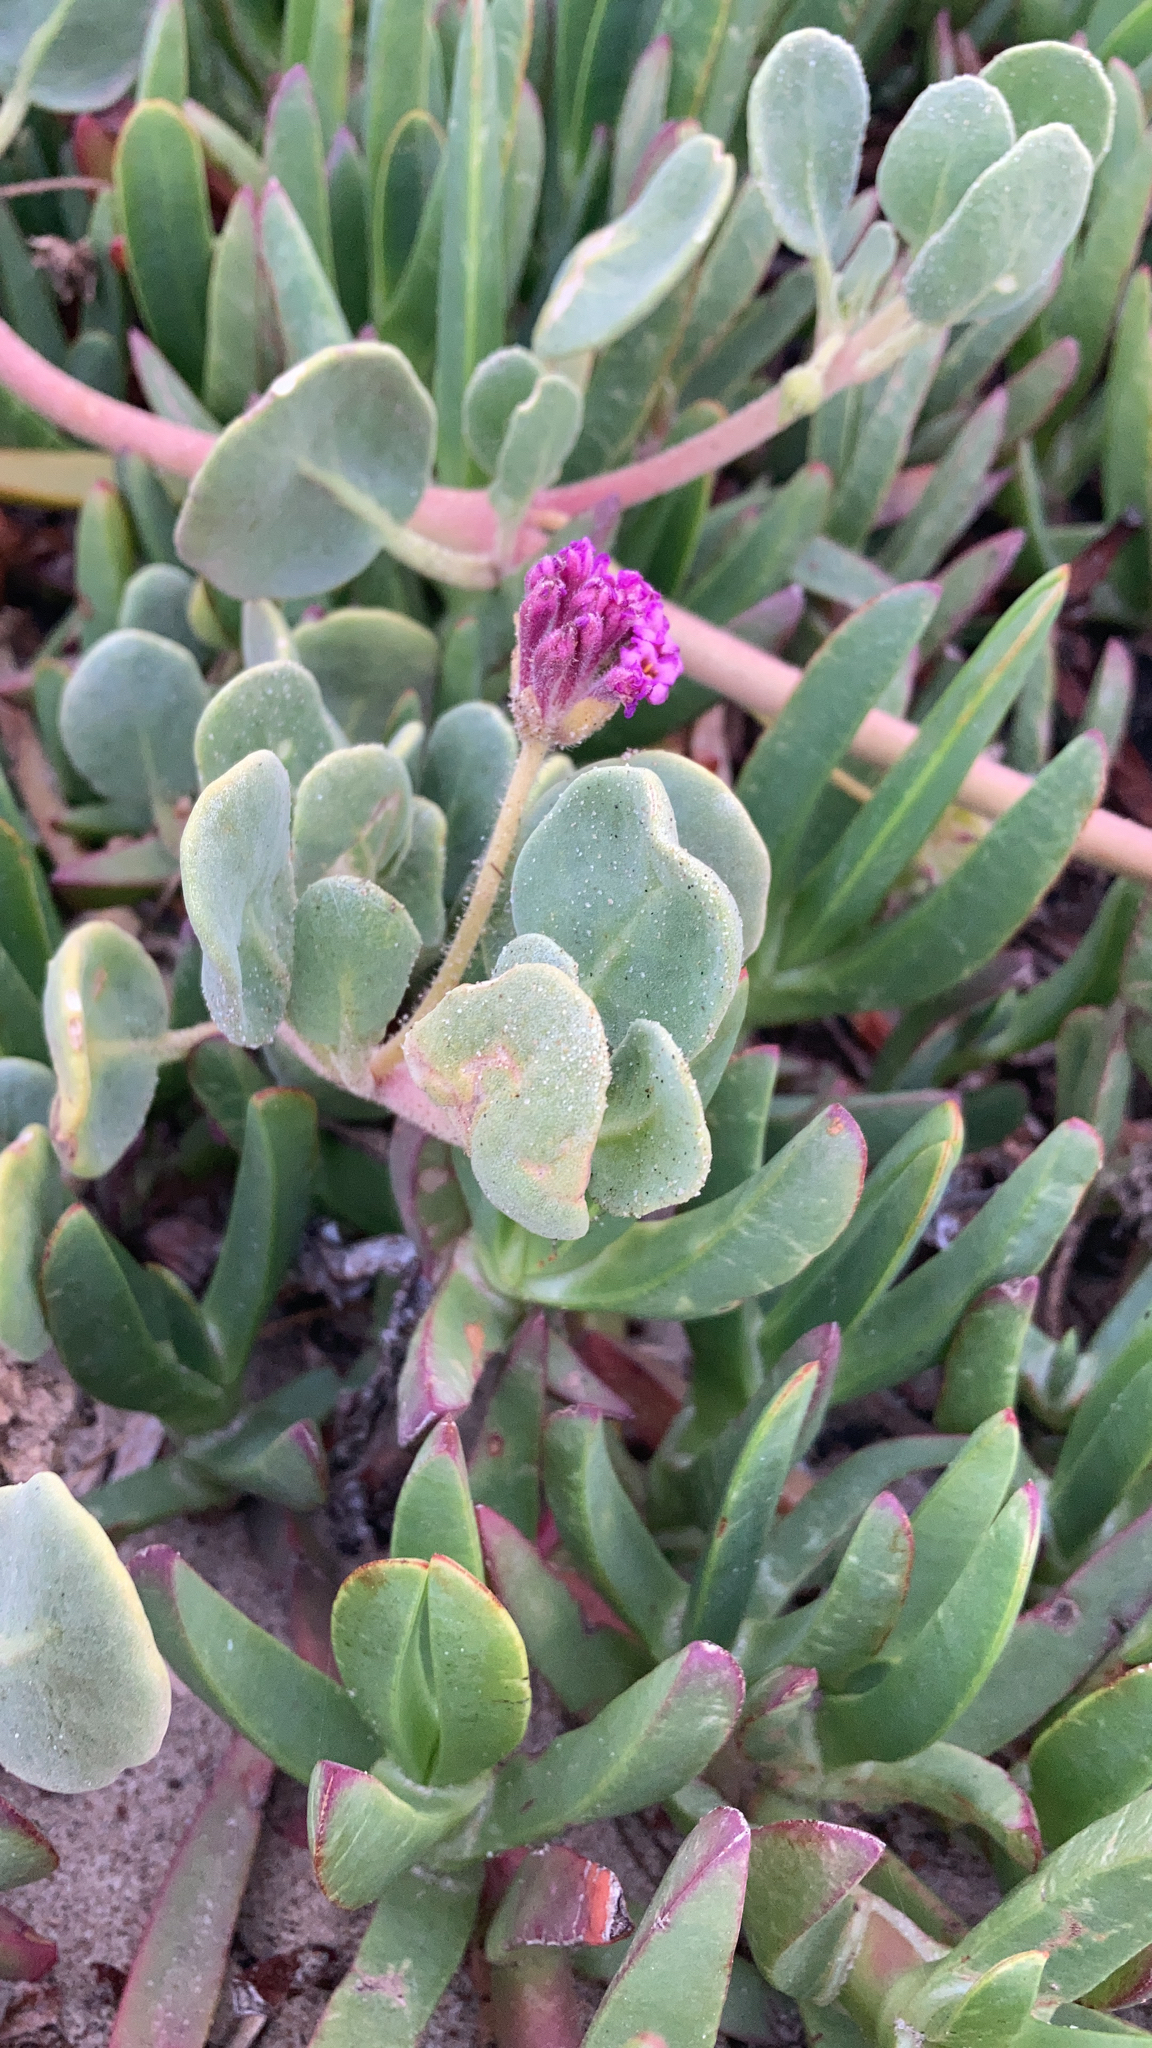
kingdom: Plantae
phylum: Tracheophyta
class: Magnoliopsida
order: Caryophyllales
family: Nyctaginaceae
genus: Abronia
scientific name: Abronia maritima
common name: Red sand-verbena
